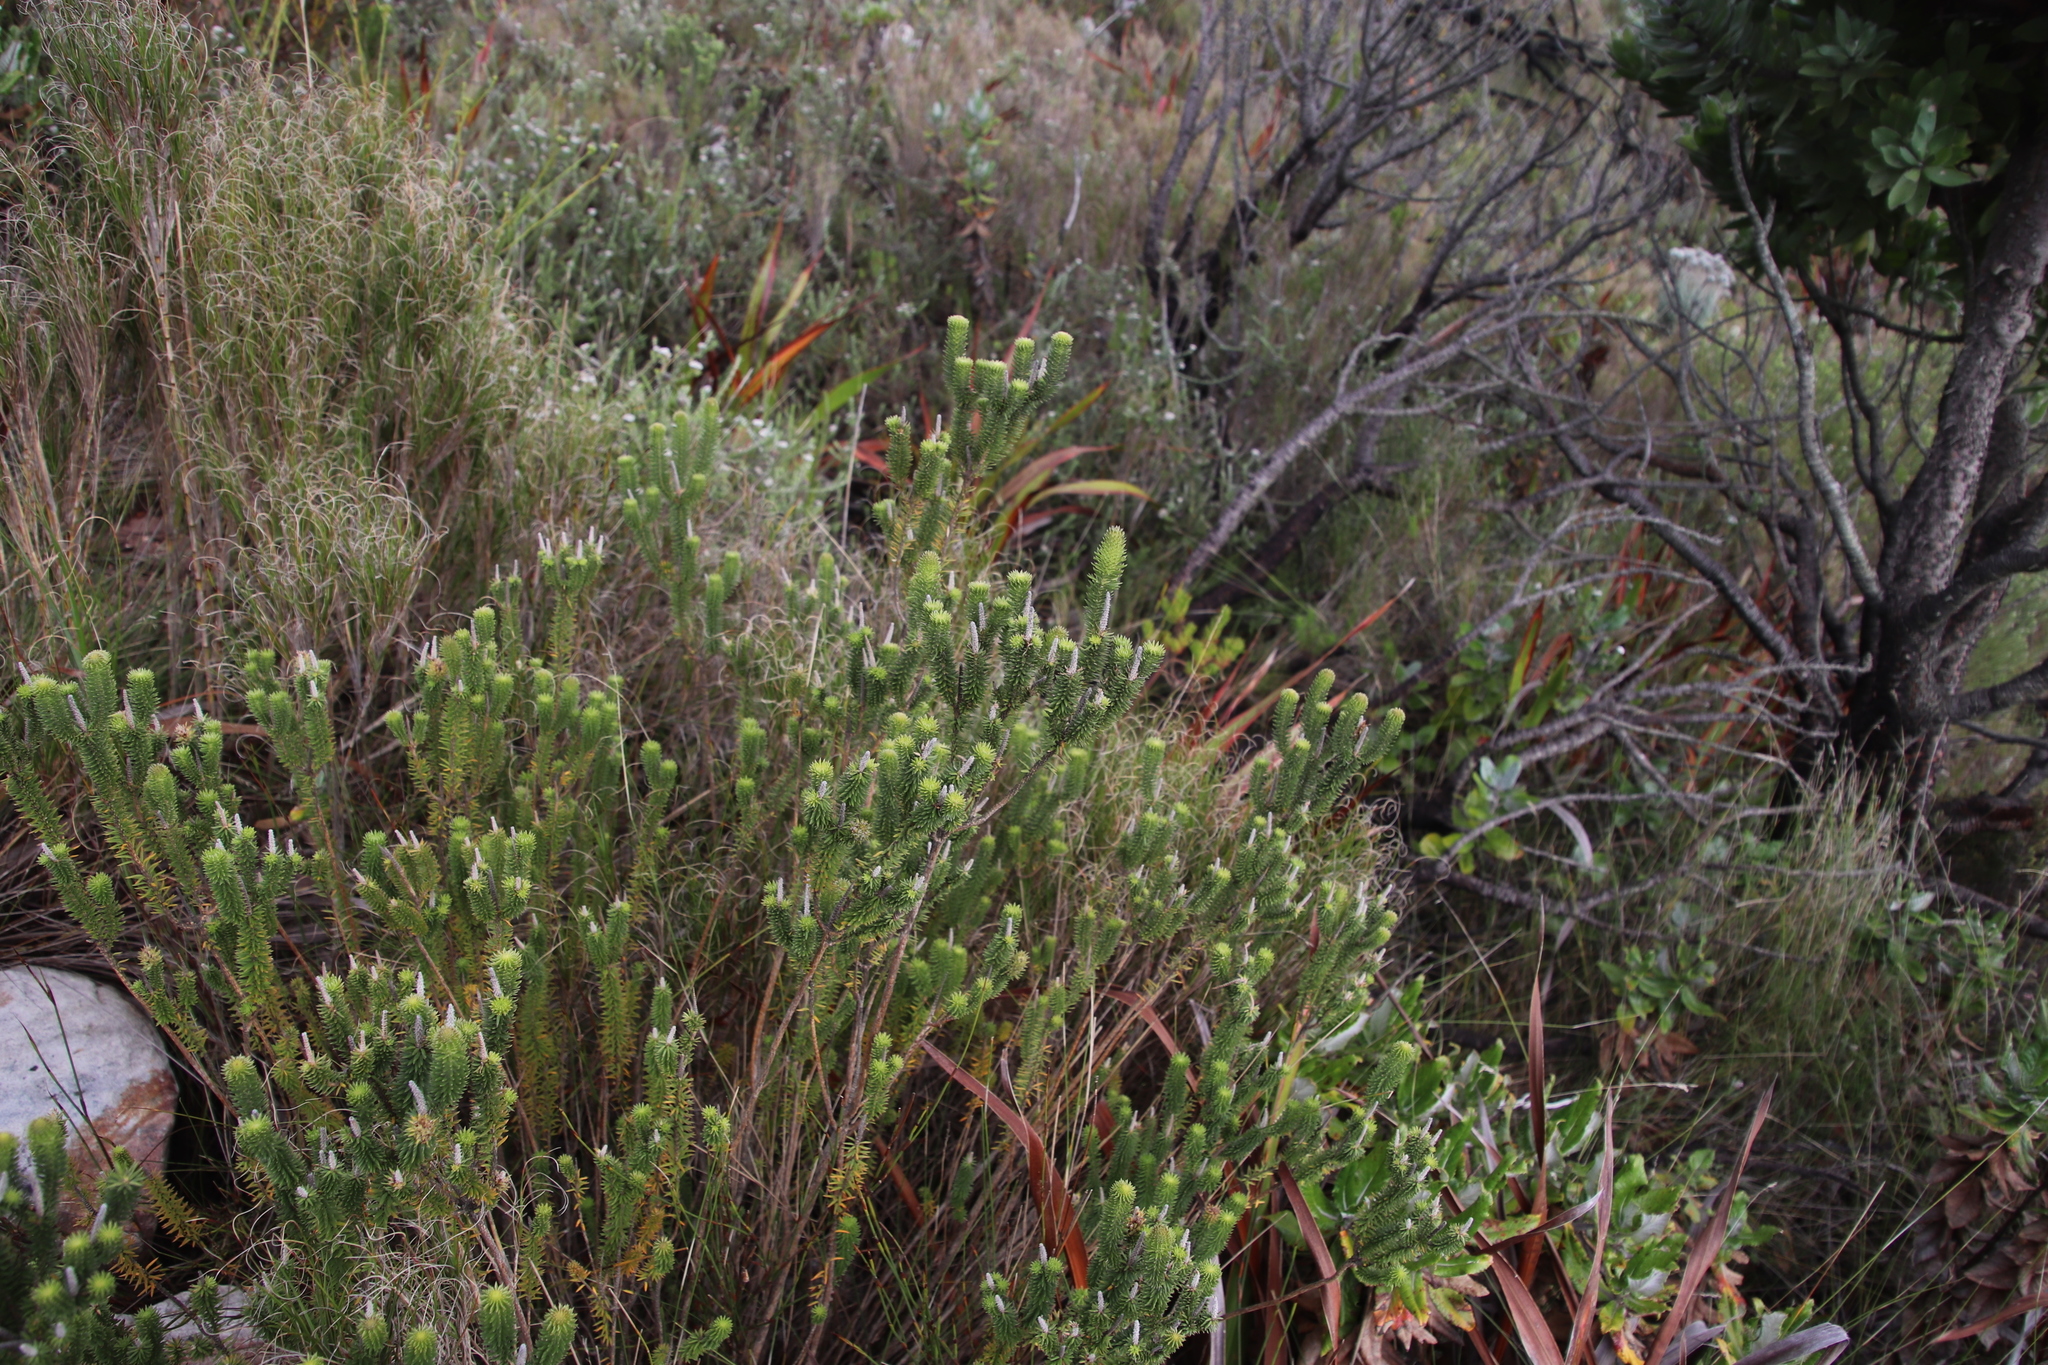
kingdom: Plantae
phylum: Tracheophyta
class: Magnoliopsida
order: Lamiales
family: Stilbaceae
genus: Stilbe
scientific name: Stilbe vestita
